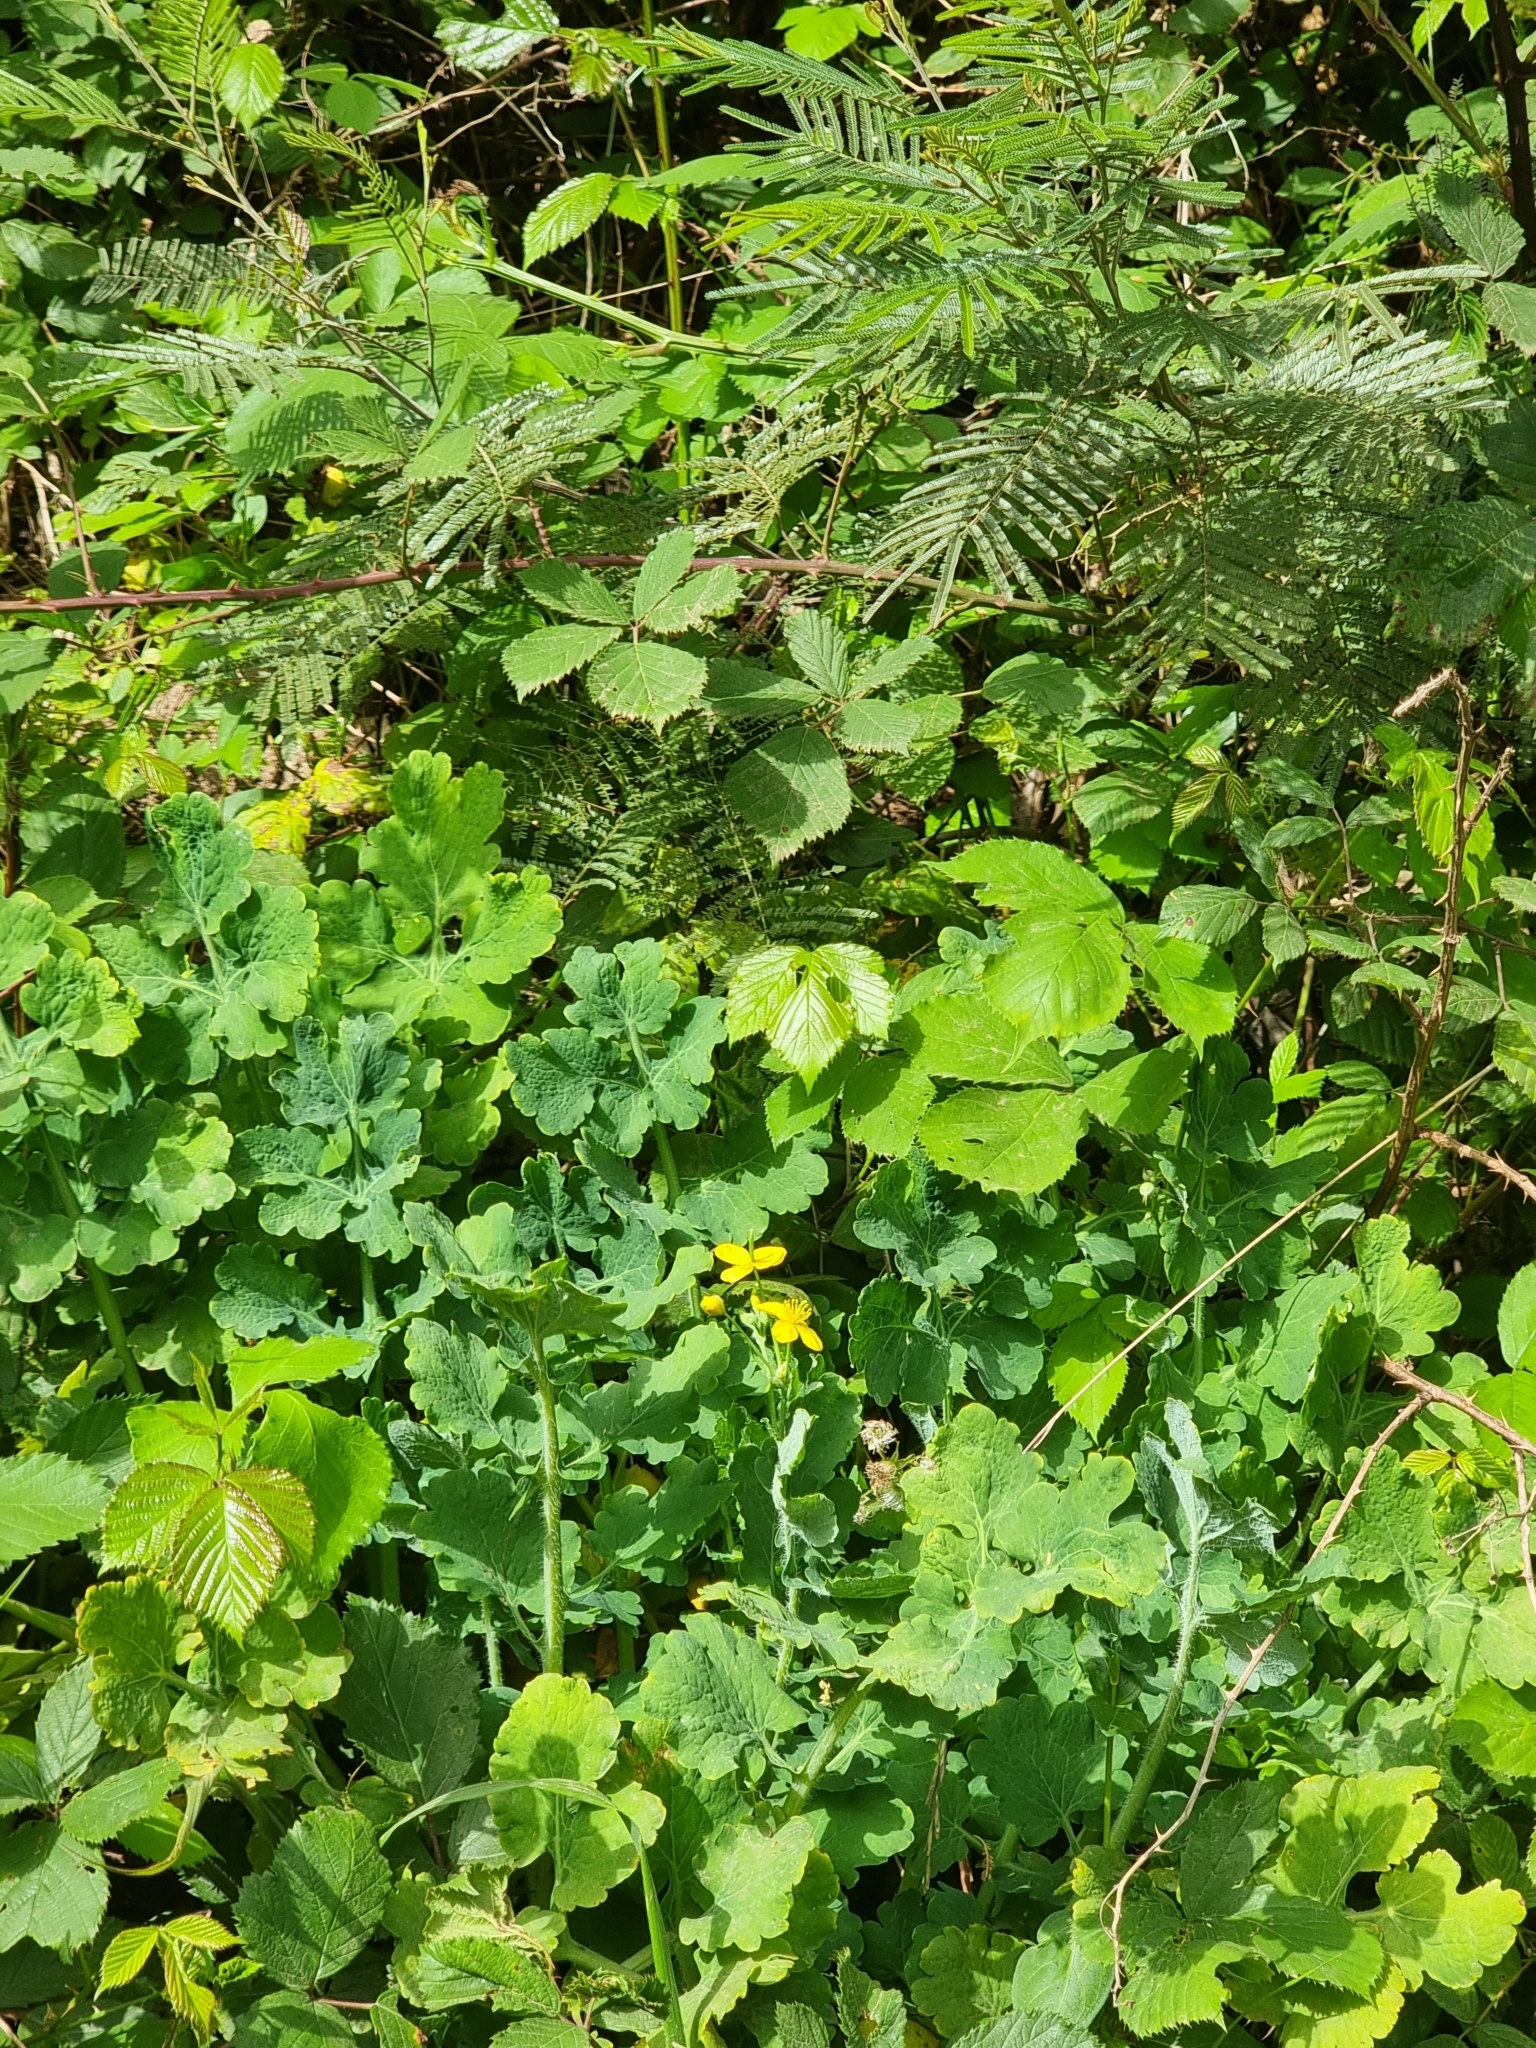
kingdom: Plantae
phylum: Tracheophyta
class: Magnoliopsida
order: Ranunculales
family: Papaveraceae
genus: Chelidonium
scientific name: Chelidonium majus
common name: Greater celandine
